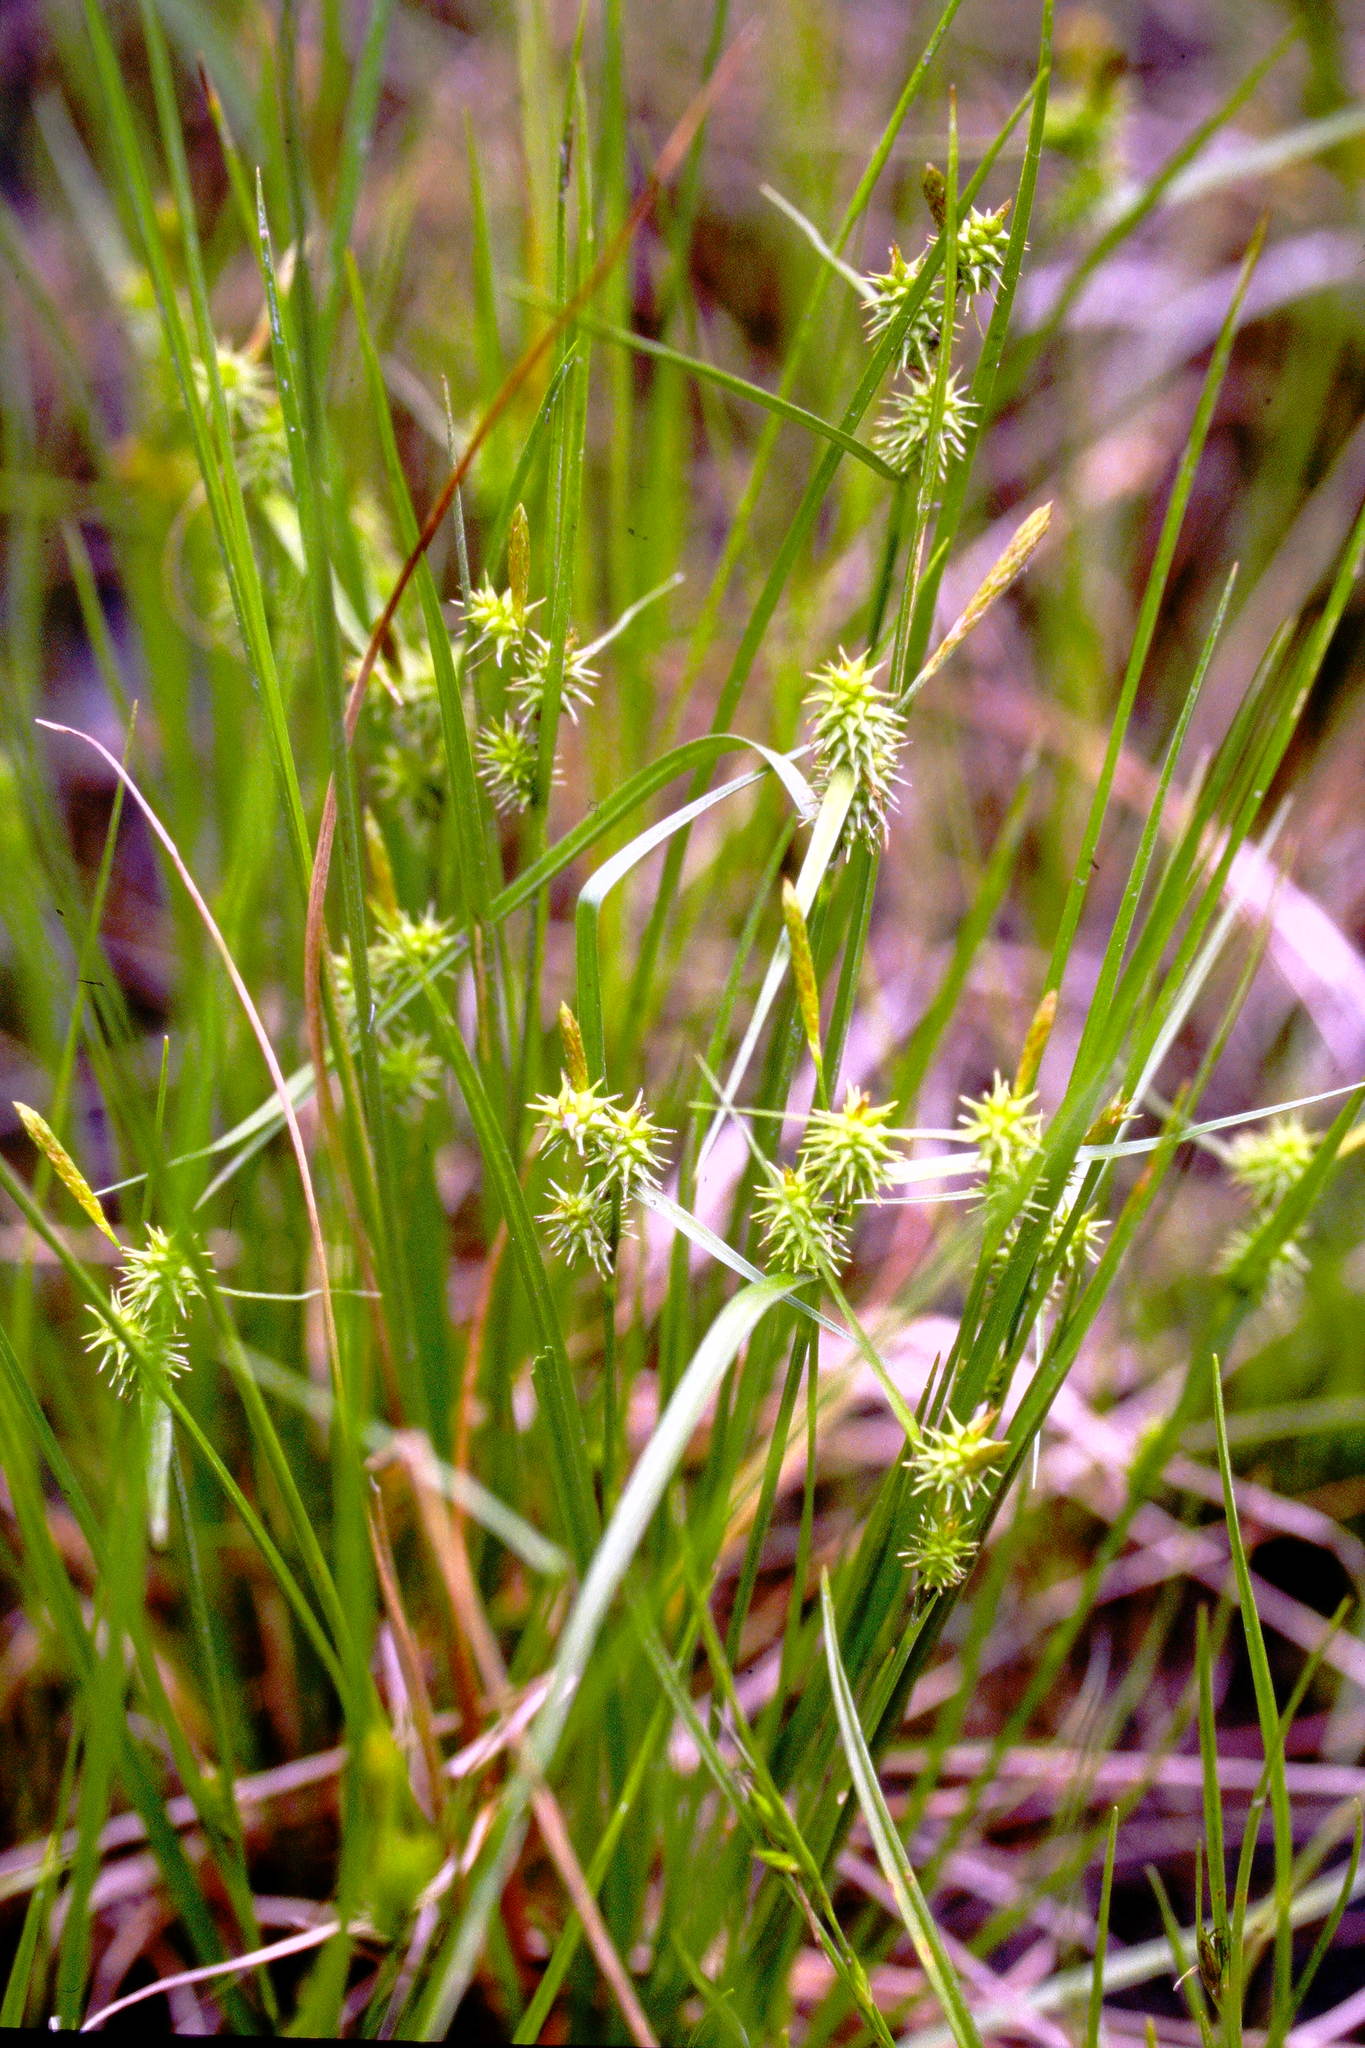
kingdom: Plantae
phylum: Tracheophyta
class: Liliopsida
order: Poales
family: Cyperaceae
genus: Carex
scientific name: Carex cryptolepis
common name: Northeastern sedge
